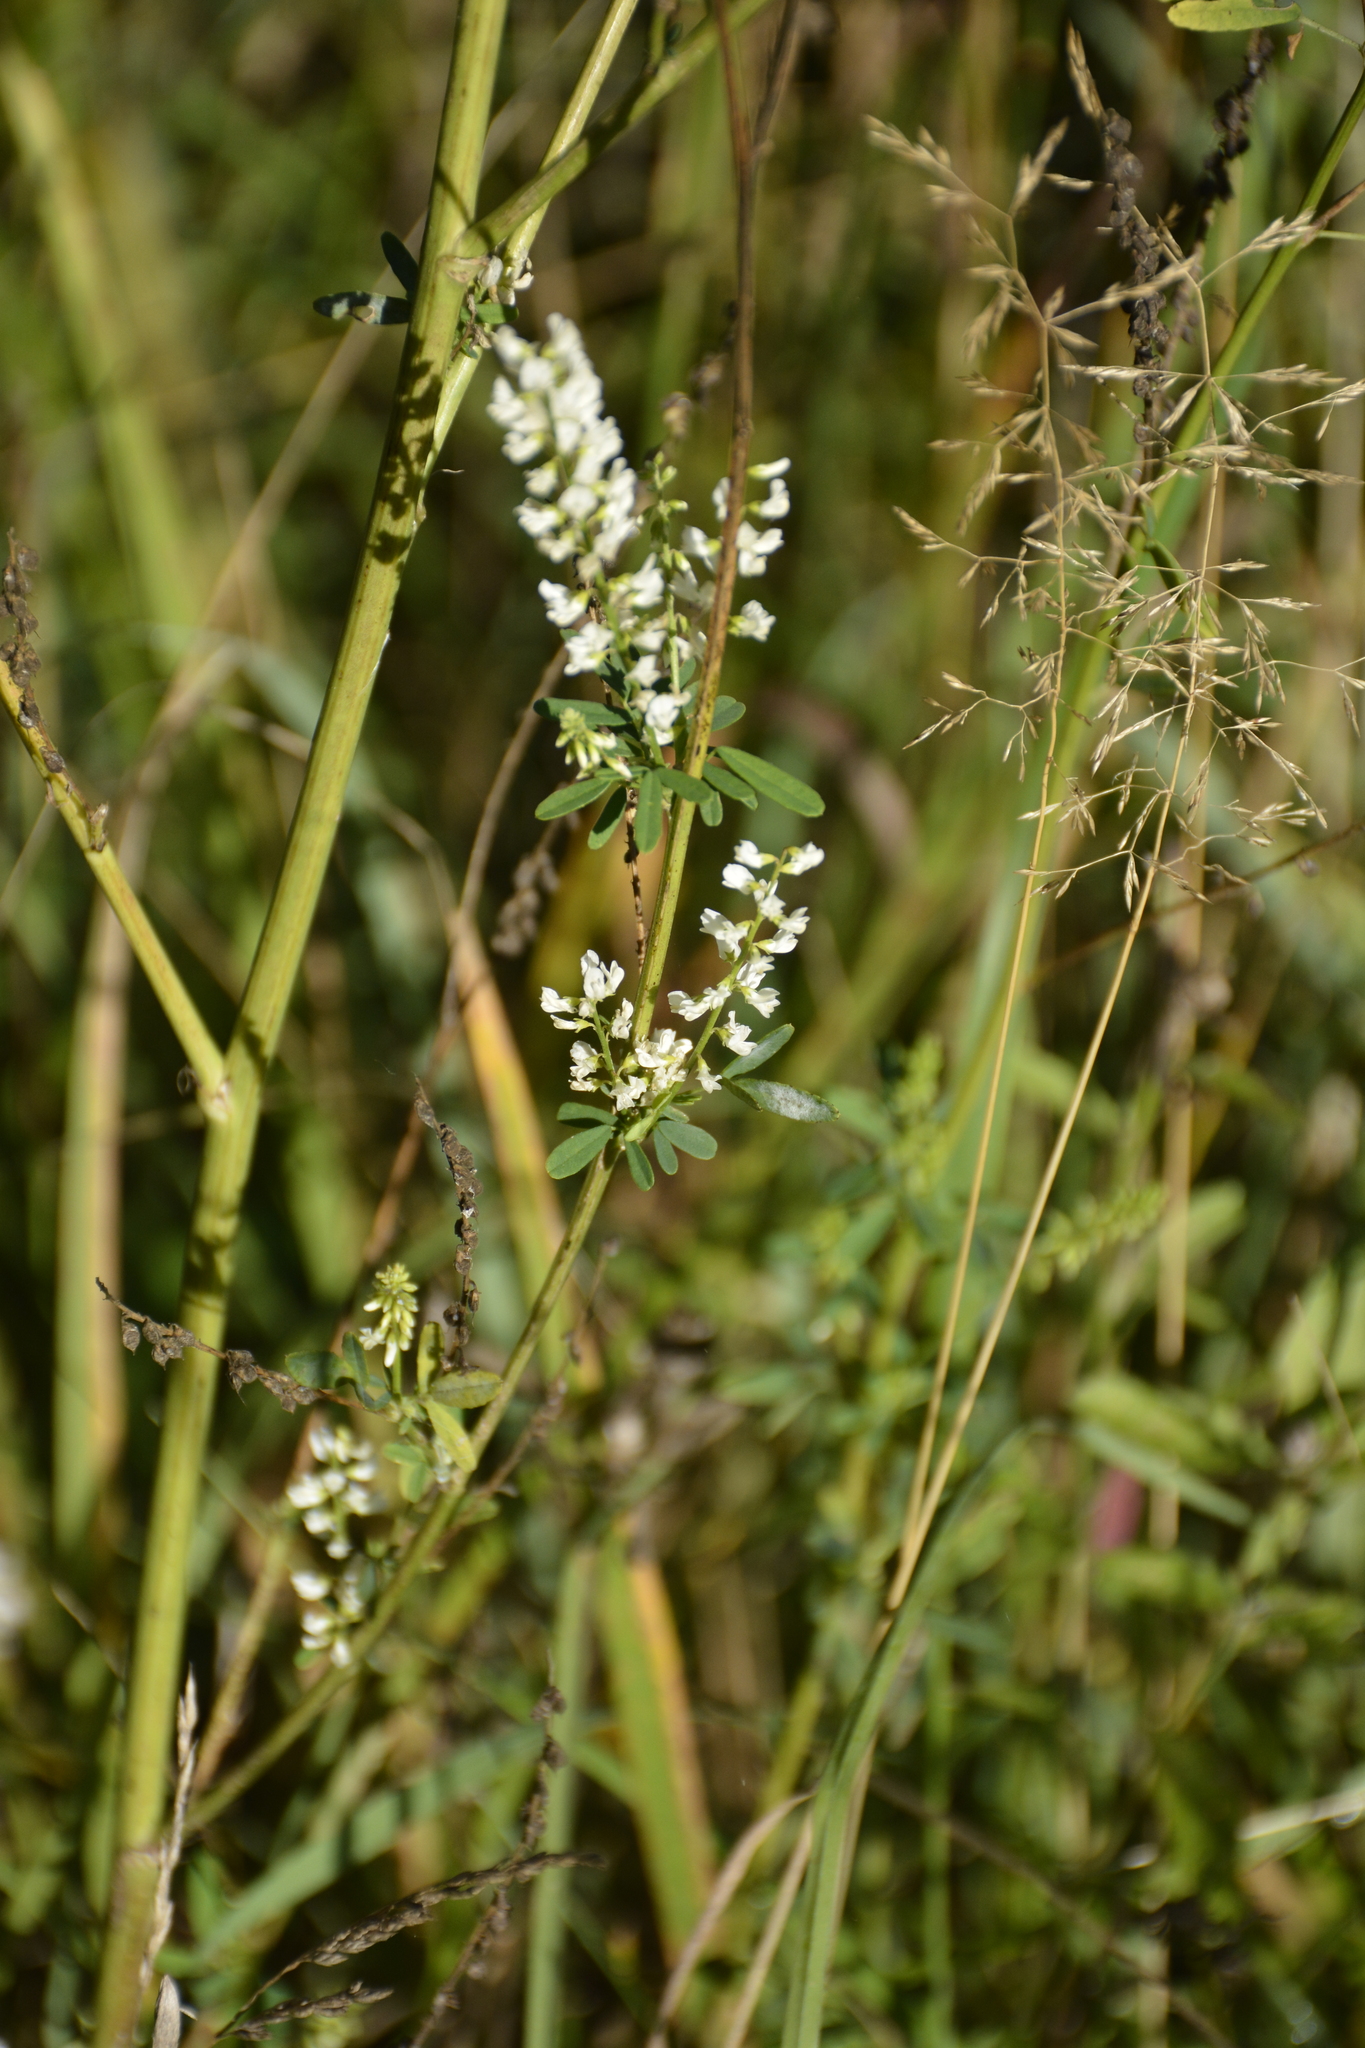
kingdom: Plantae
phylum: Tracheophyta
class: Magnoliopsida
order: Fabales
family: Fabaceae
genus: Melilotus
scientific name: Melilotus albus
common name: White melilot
